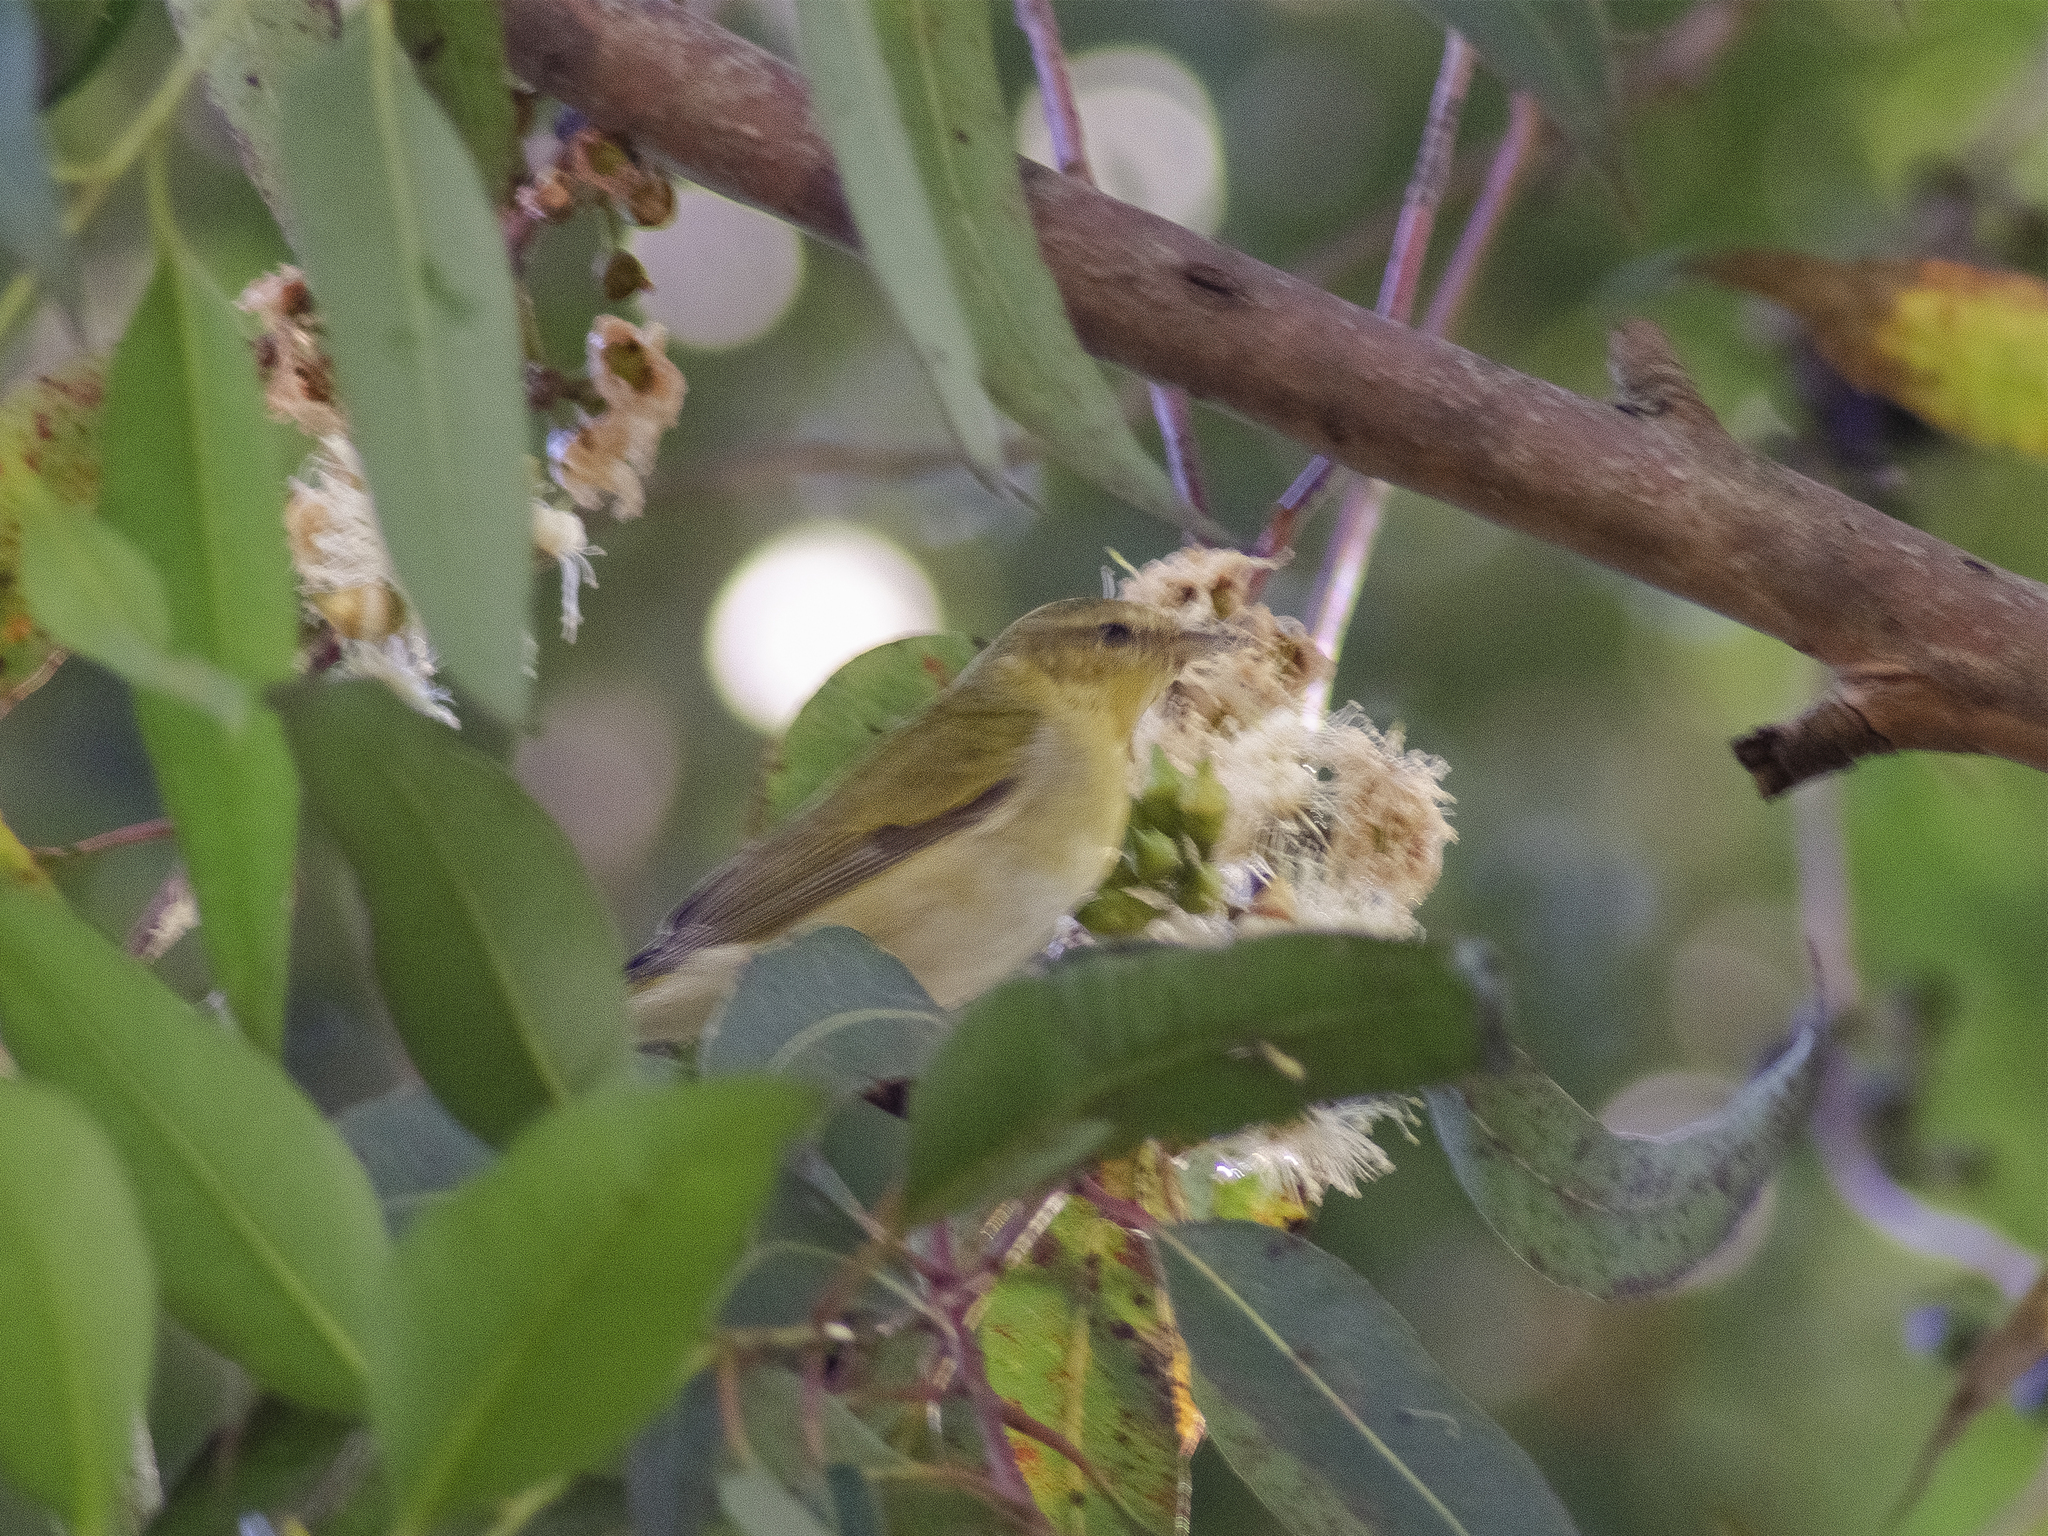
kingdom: Animalia
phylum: Chordata
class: Aves
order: Passeriformes
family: Parulidae
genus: Leiothlypis
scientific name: Leiothlypis peregrina
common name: Tennessee warbler
